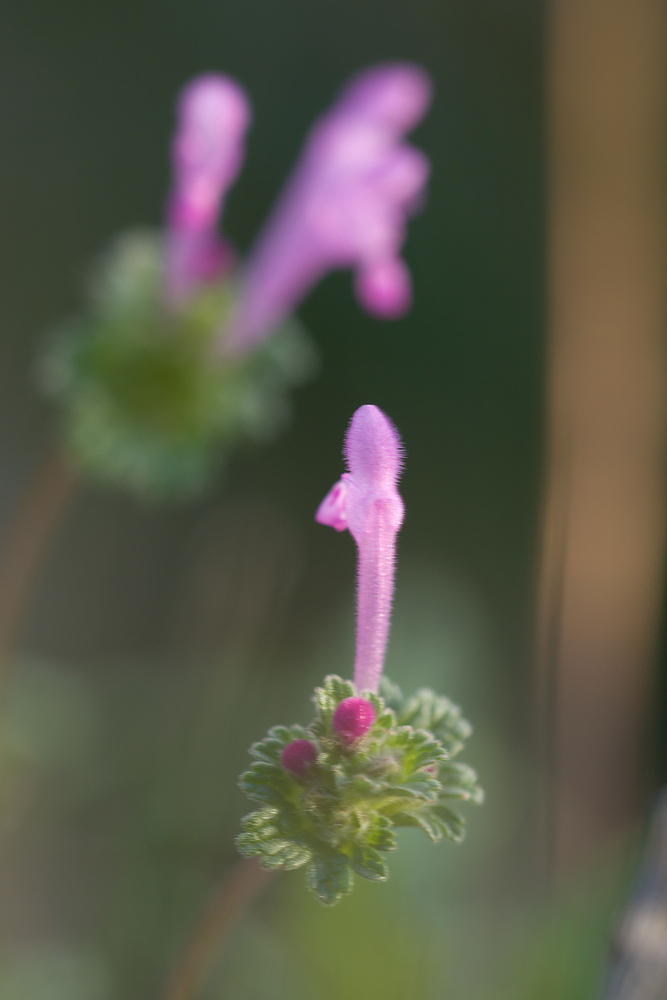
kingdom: Plantae
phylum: Tracheophyta
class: Magnoliopsida
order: Lamiales
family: Lamiaceae
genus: Lamium
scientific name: Lamium amplexicaule
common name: Henbit dead-nettle
